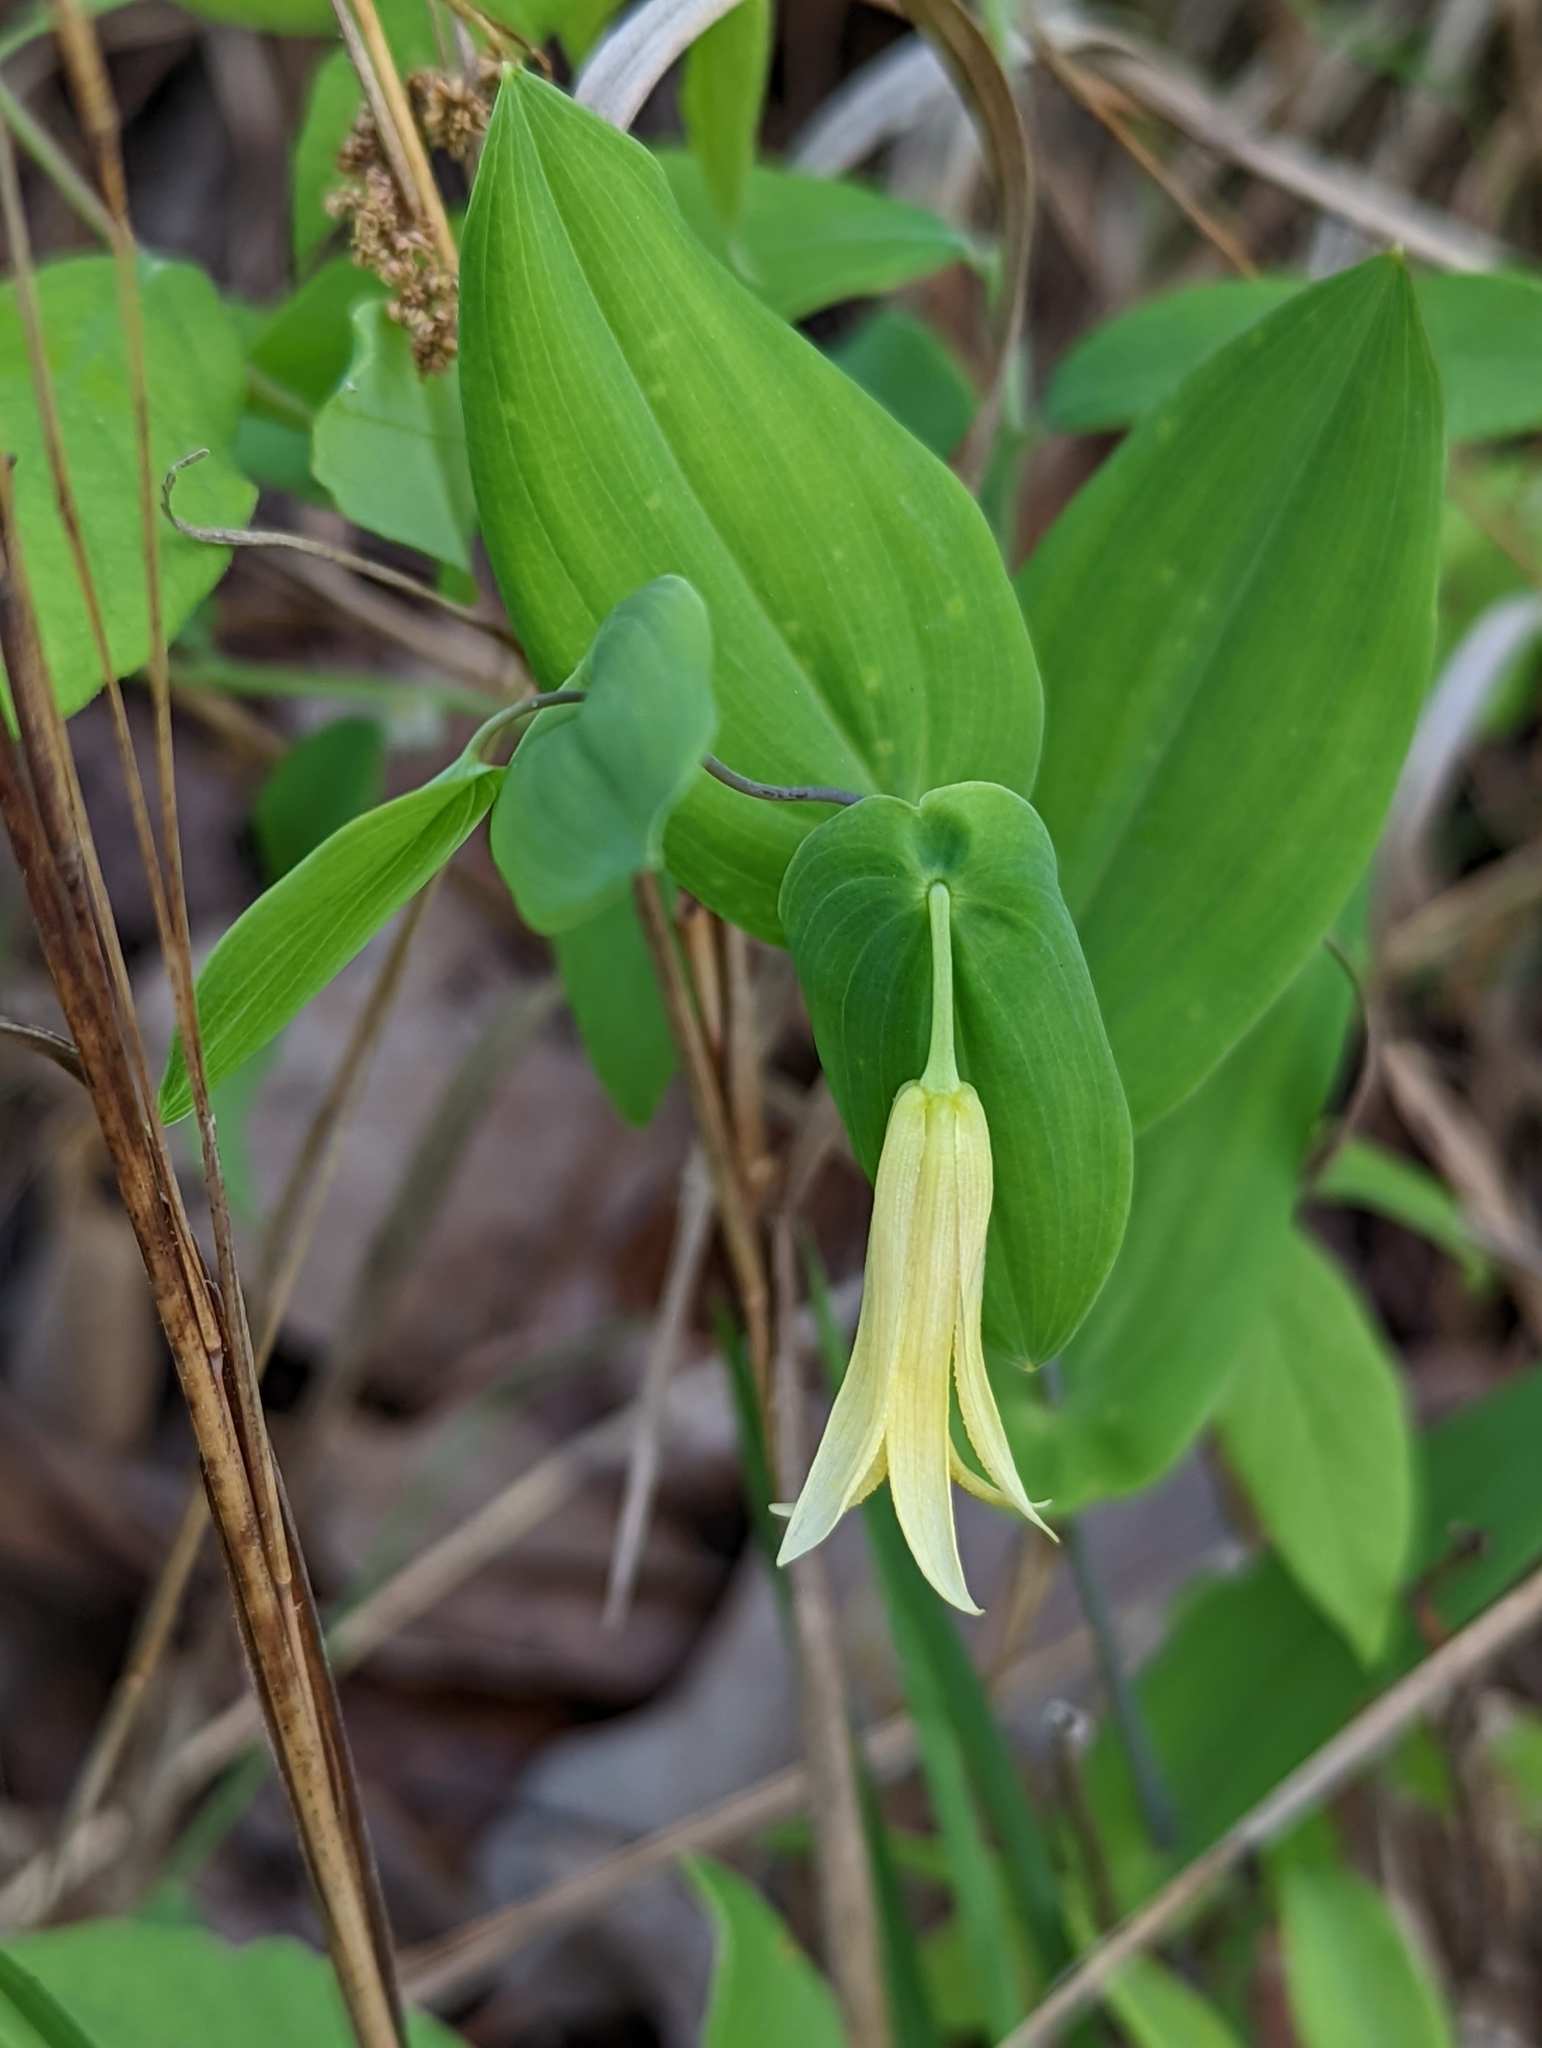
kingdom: Plantae
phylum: Tracheophyta
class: Liliopsida
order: Liliales
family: Colchicaceae
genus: Uvularia
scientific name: Uvularia perfoliata
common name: Perfoliate bellwort
